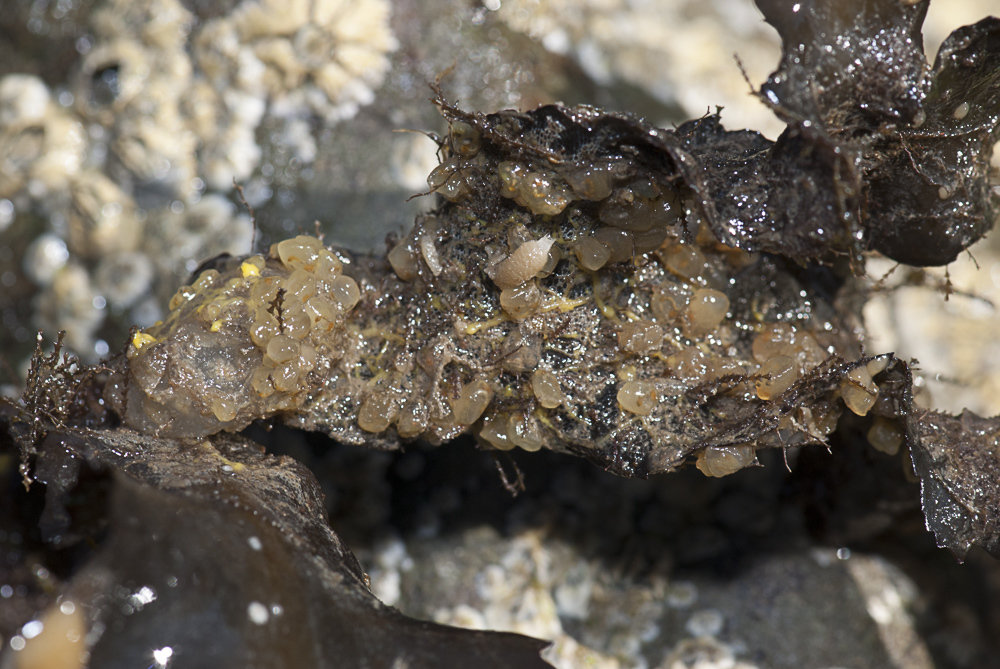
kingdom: Animalia
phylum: Chordata
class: Ascidiacea
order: Phlebobranchia
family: Perophoridae
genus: Perophora
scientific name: Perophora japonica
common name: Colonial sea squirt
